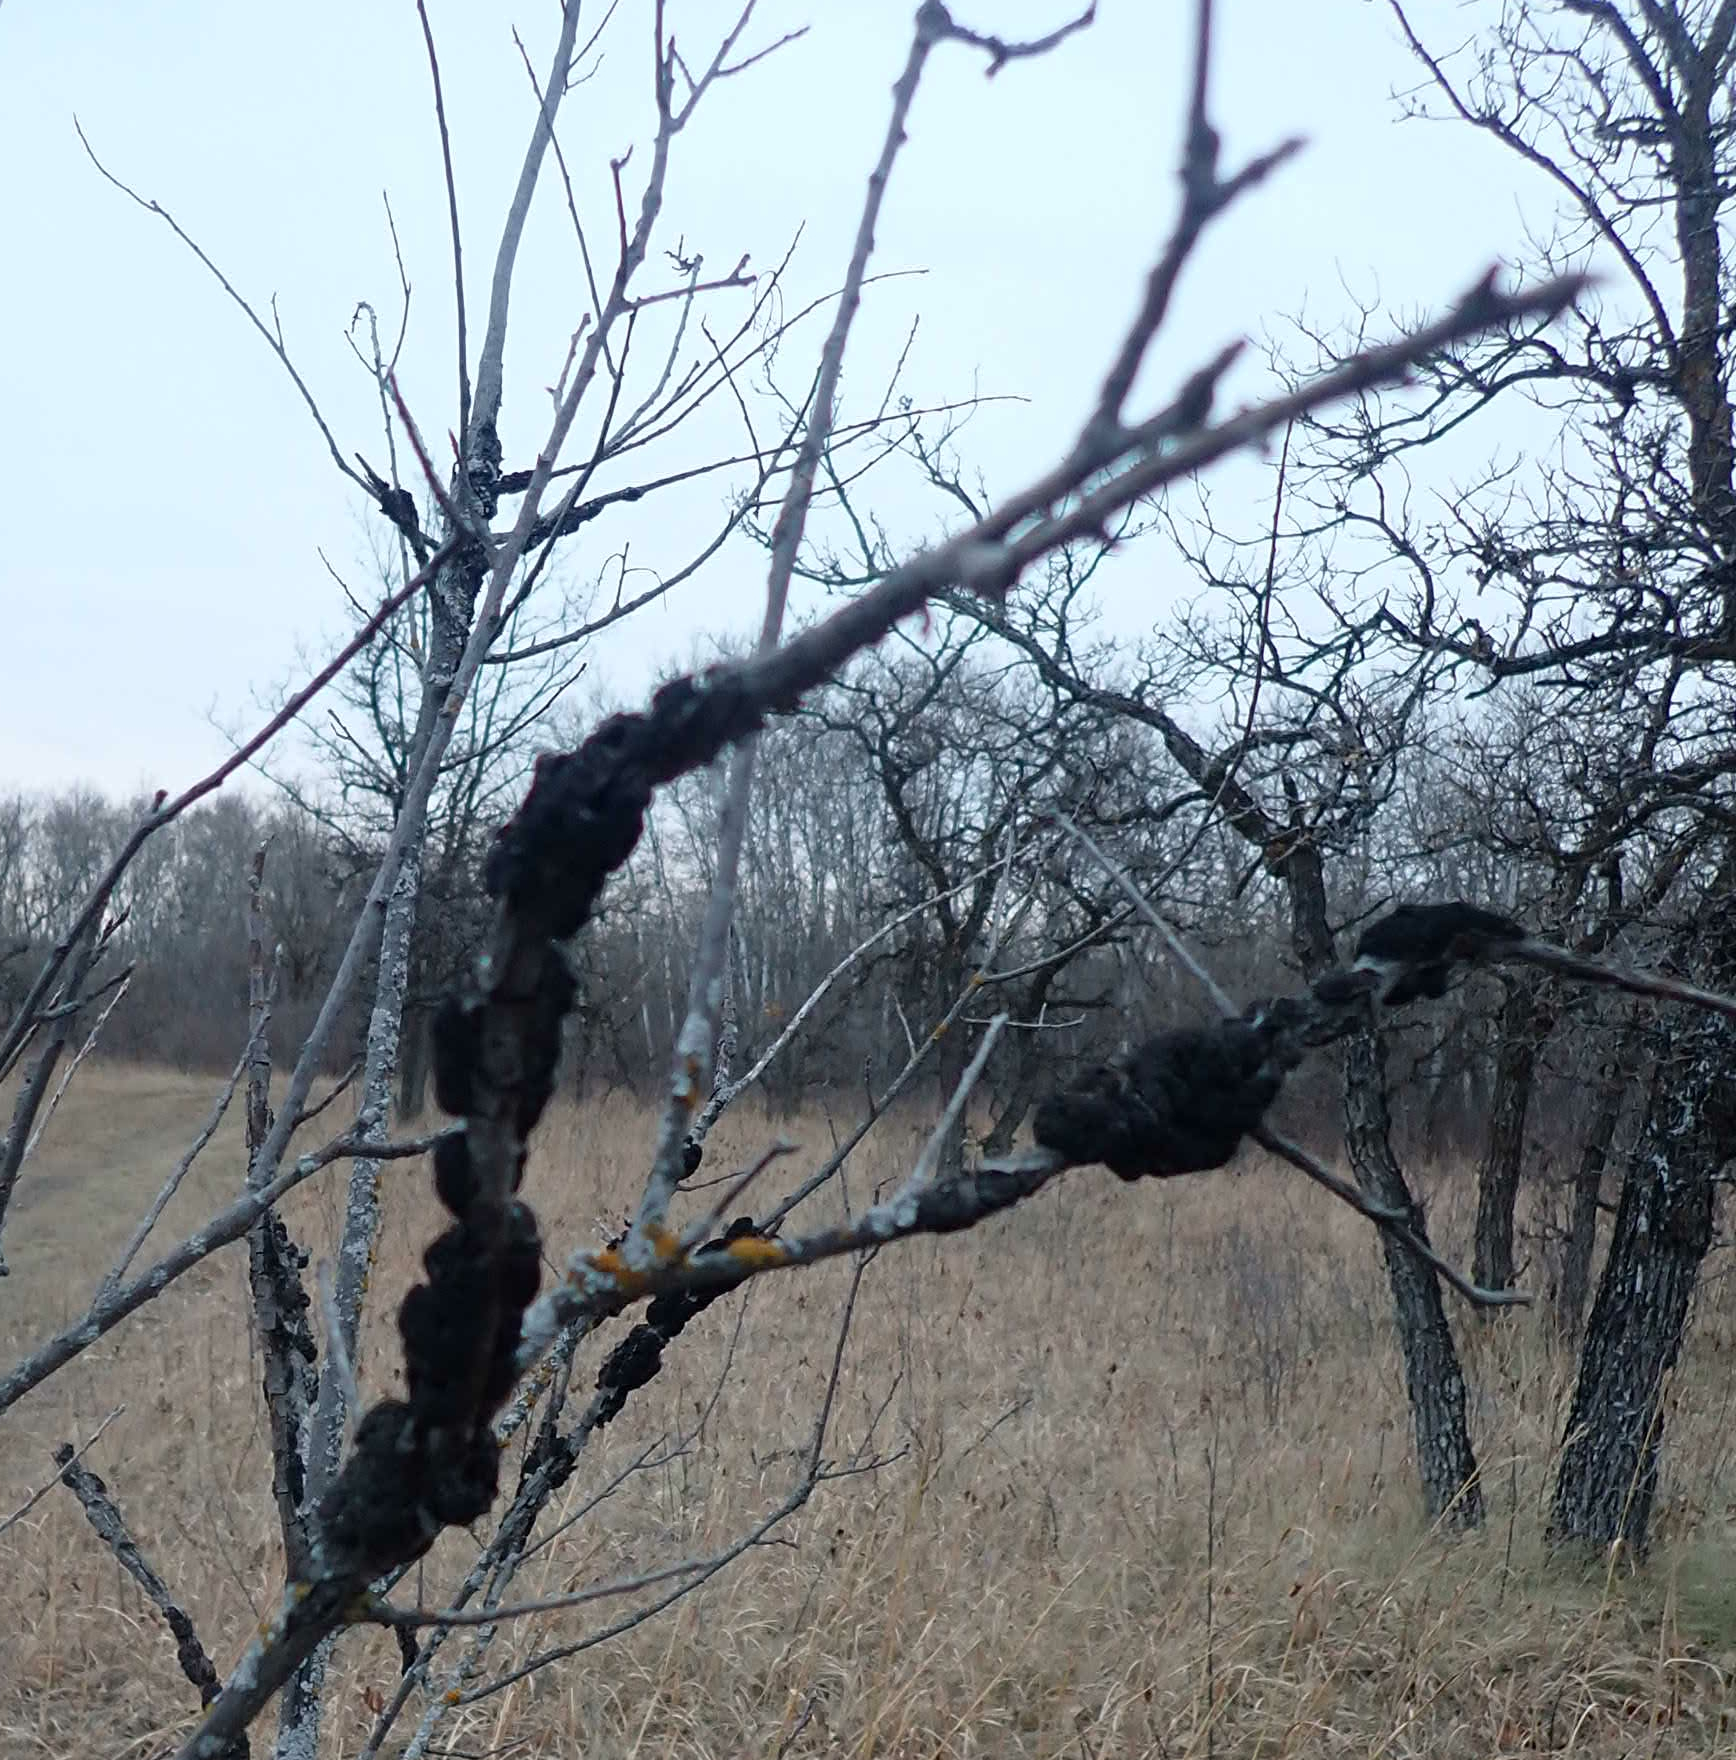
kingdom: Fungi
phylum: Ascomycota
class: Dothideomycetes
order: Venturiales
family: Venturiaceae
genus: Apiosporina
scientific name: Apiosporina morbosa
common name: Black knot
